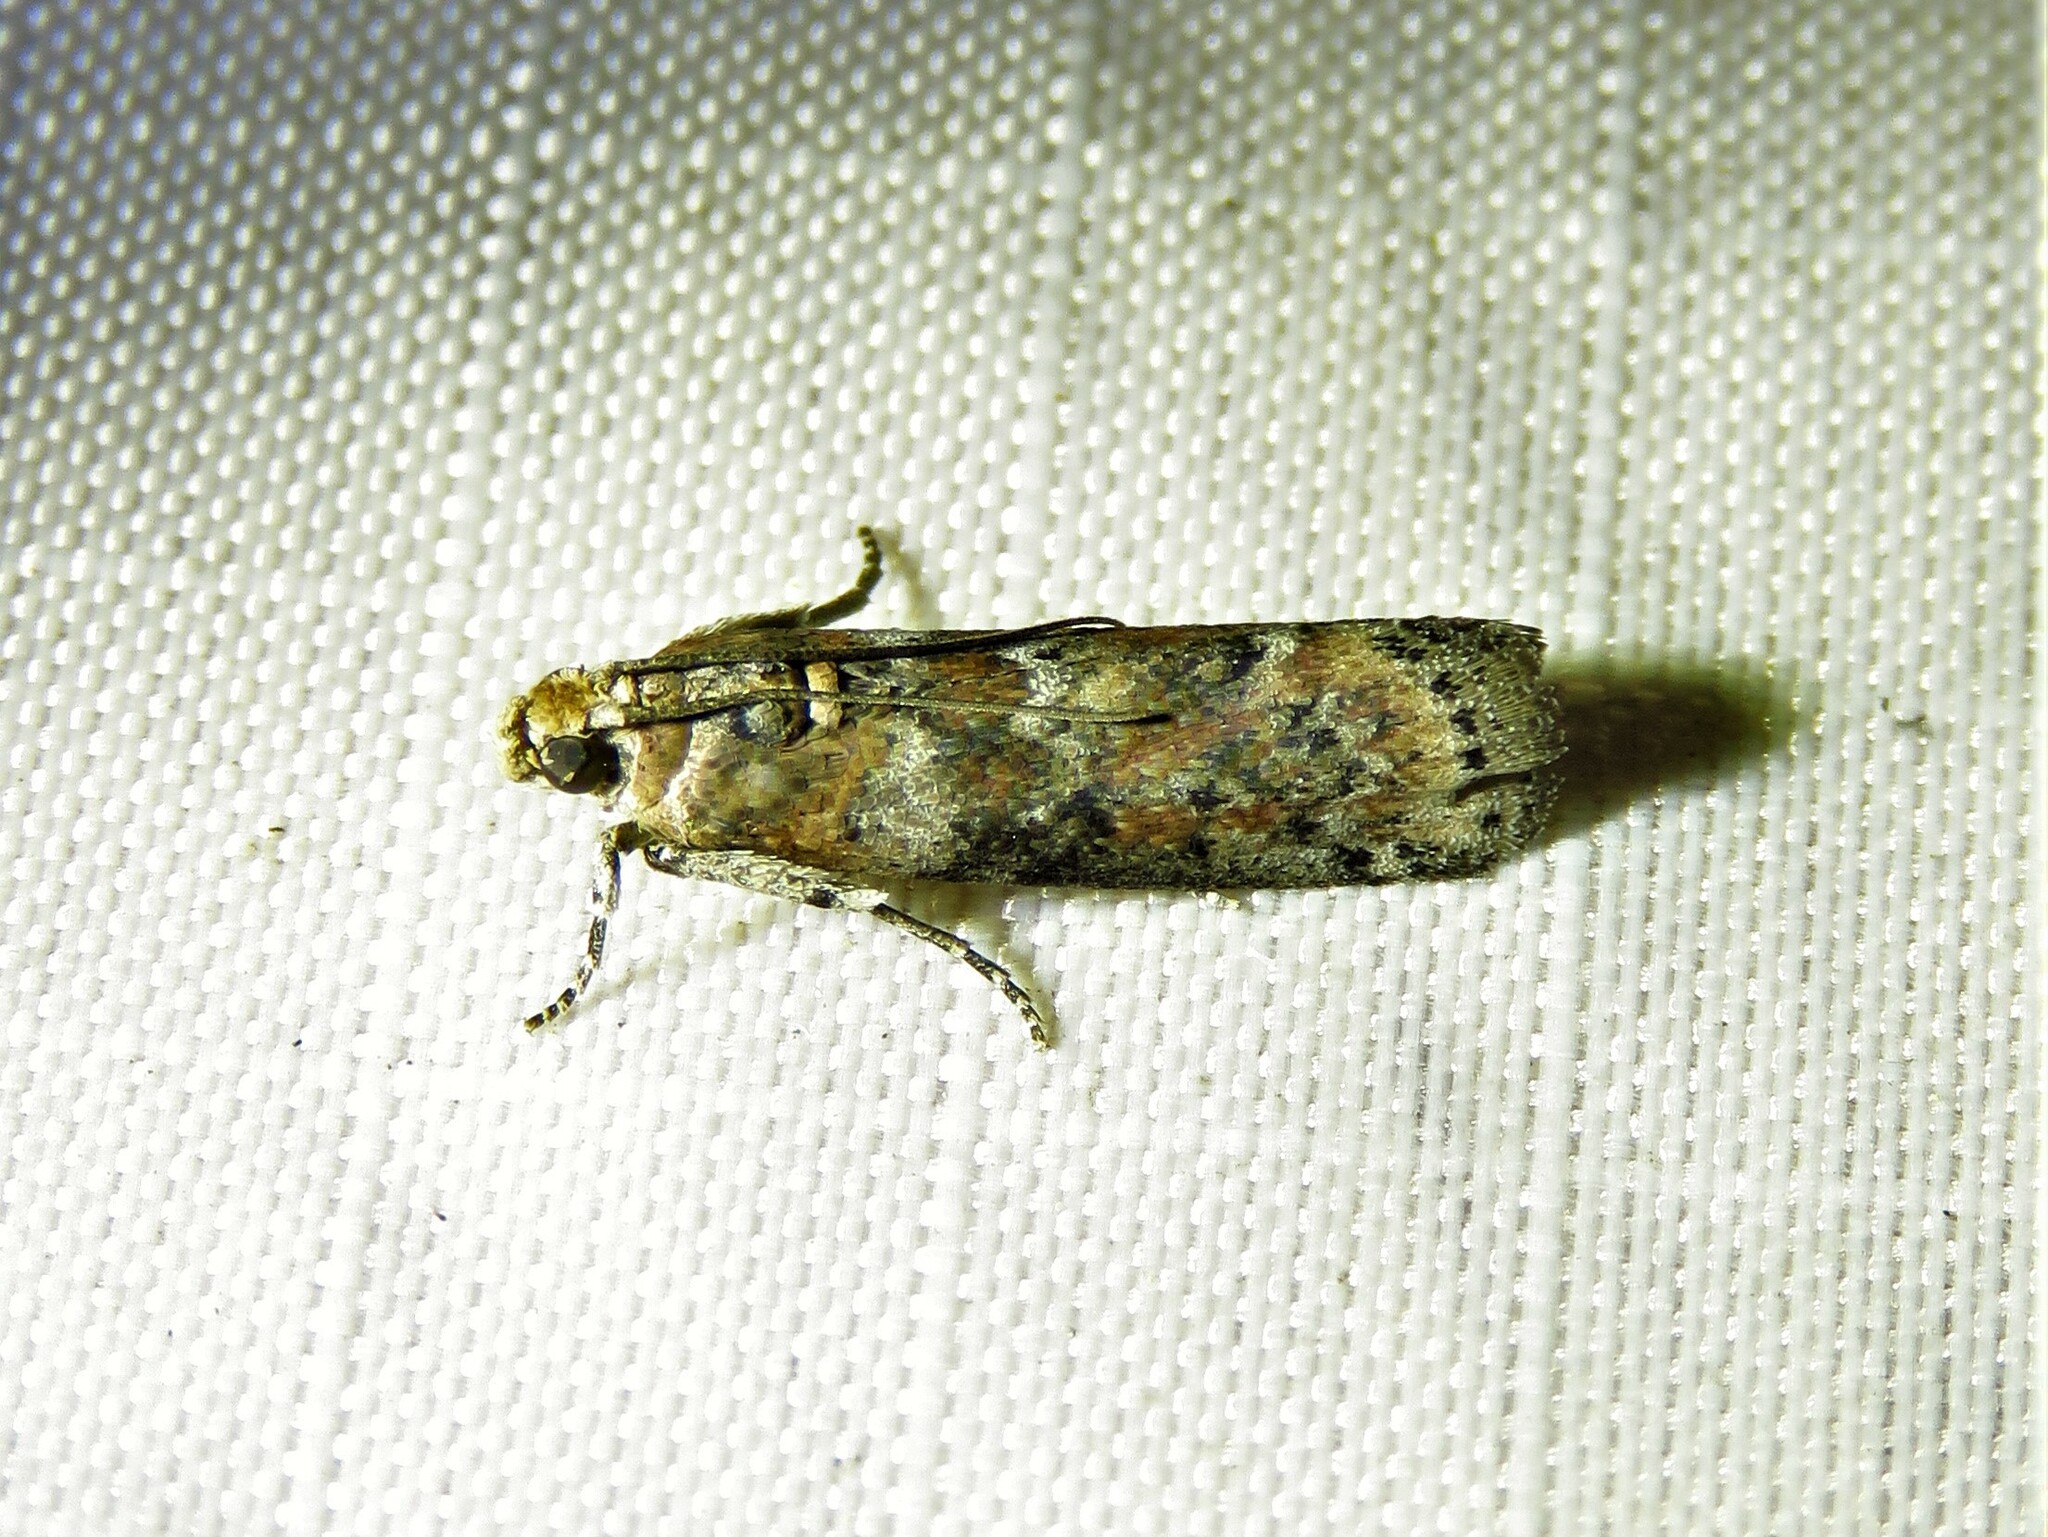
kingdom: Animalia
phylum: Arthropoda
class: Insecta
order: Lepidoptera
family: Pyralidae
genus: Sciota
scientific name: Sciota celtidella
